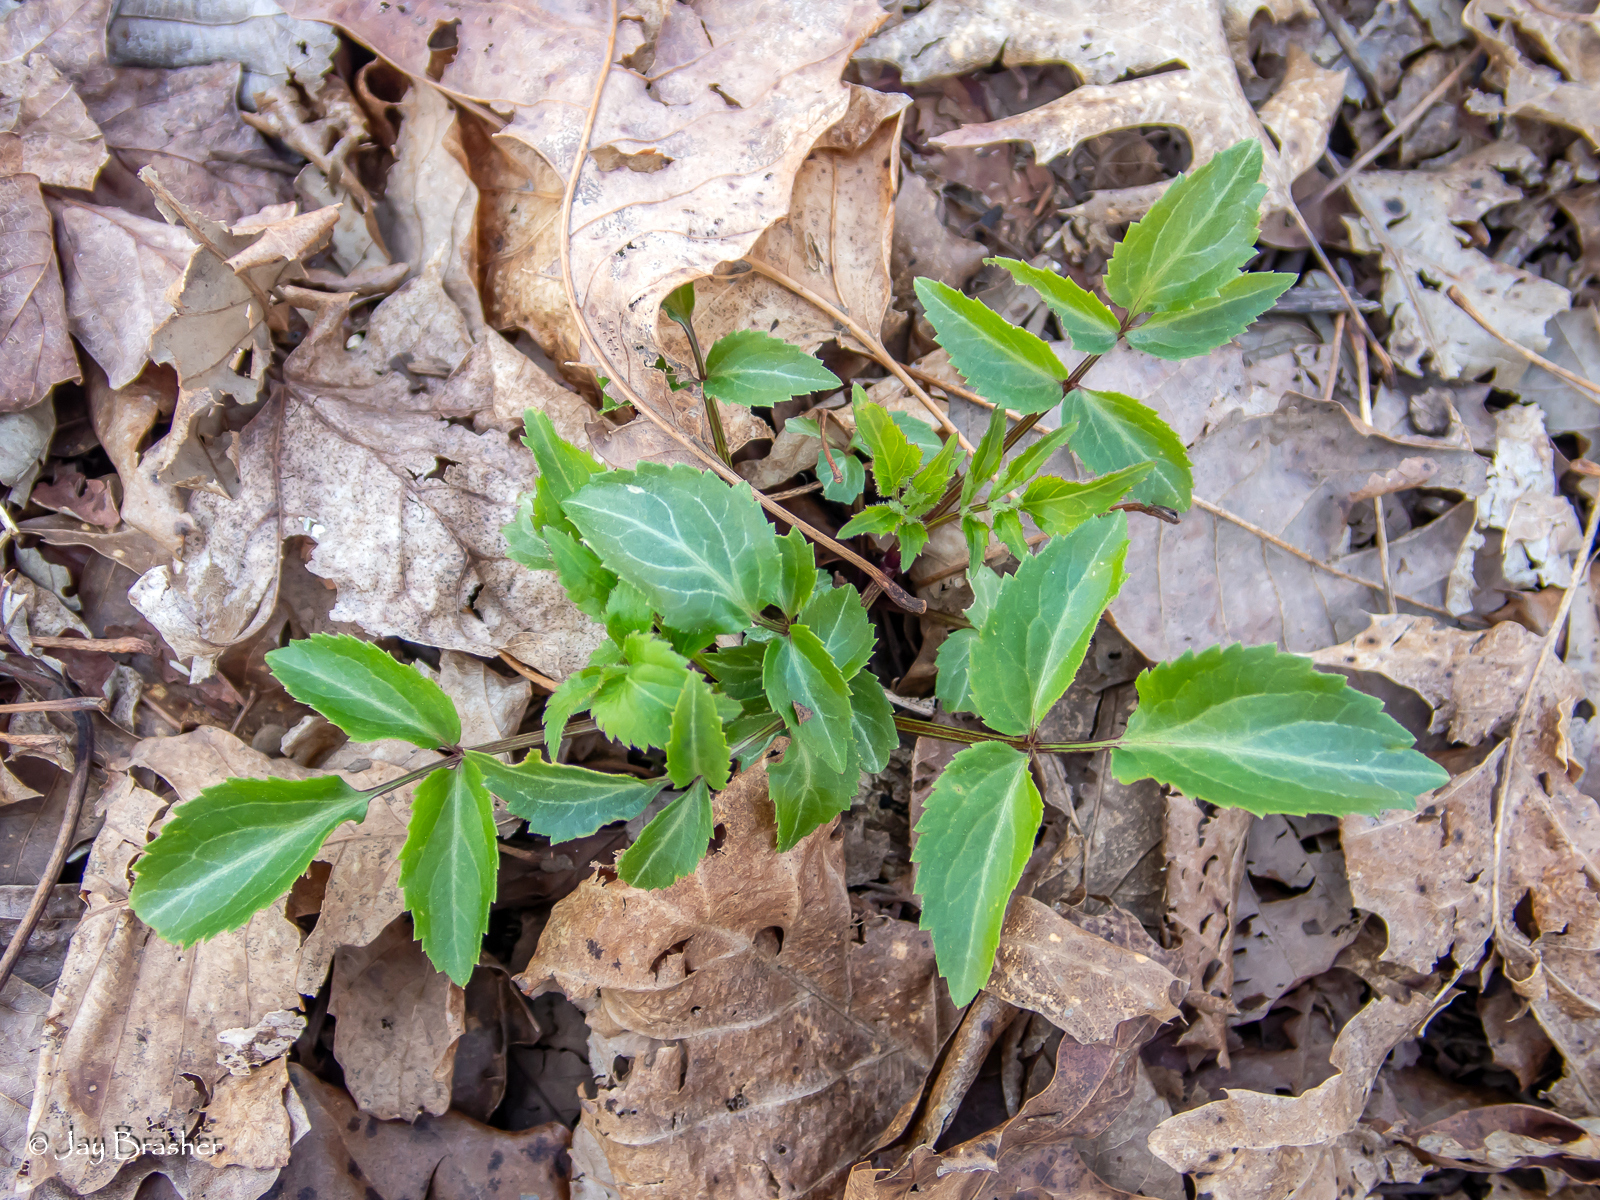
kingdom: Plantae
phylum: Tracheophyta
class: Magnoliopsida
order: Dipsacales
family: Viburnaceae
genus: Sambucus
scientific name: Sambucus canadensis
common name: American elder
